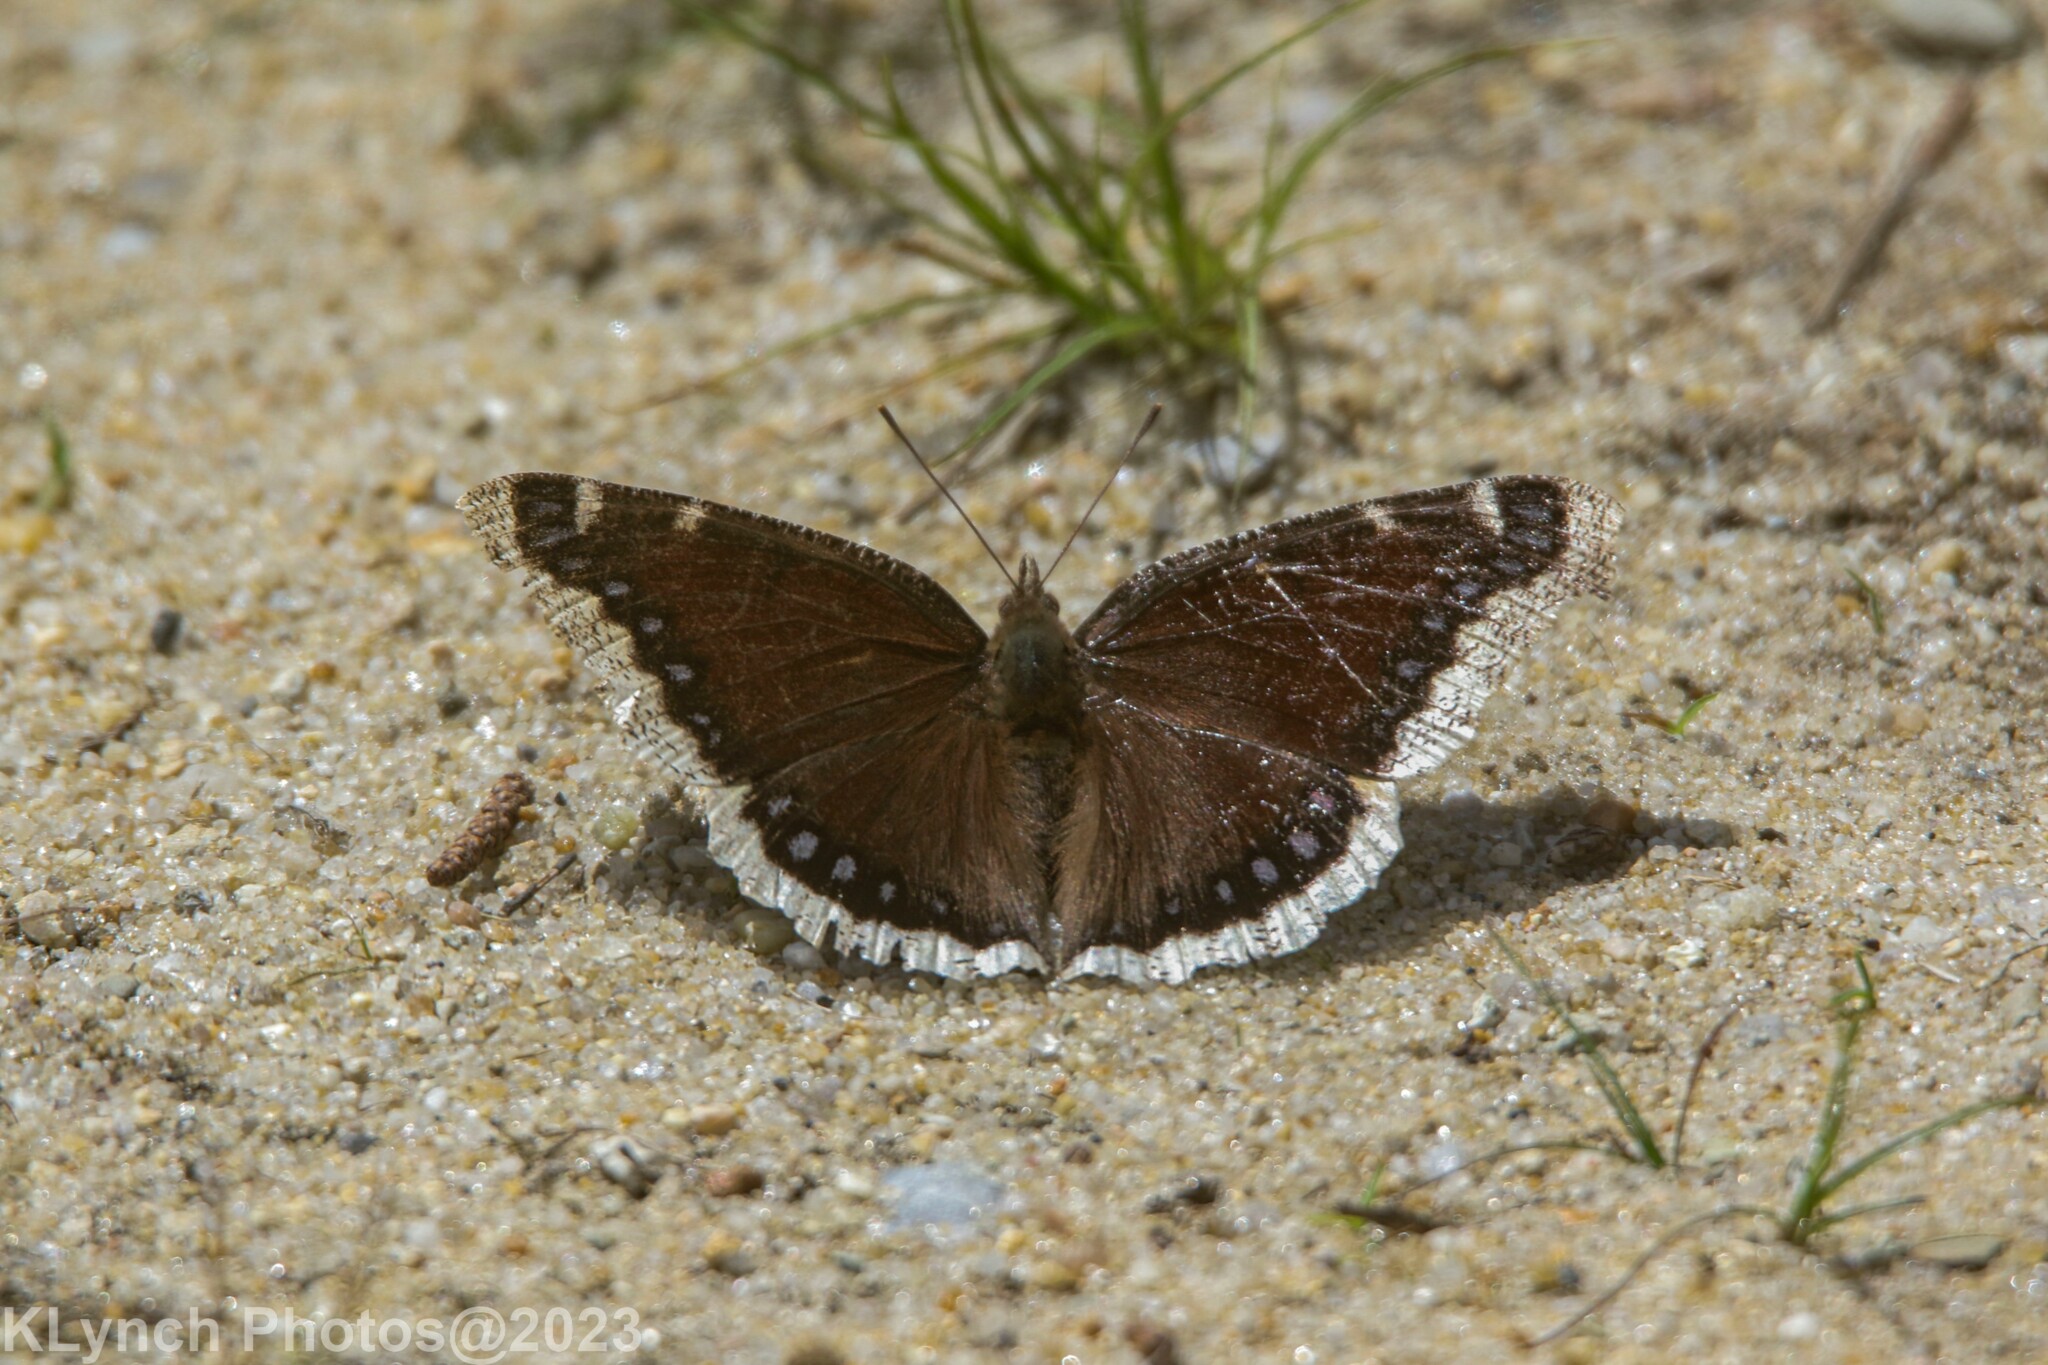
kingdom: Animalia
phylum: Arthropoda
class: Insecta
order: Lepidoptera
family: Nymphalidae
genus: Nymphalis
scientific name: Nymphalis antiopa
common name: Camberwell beauty
